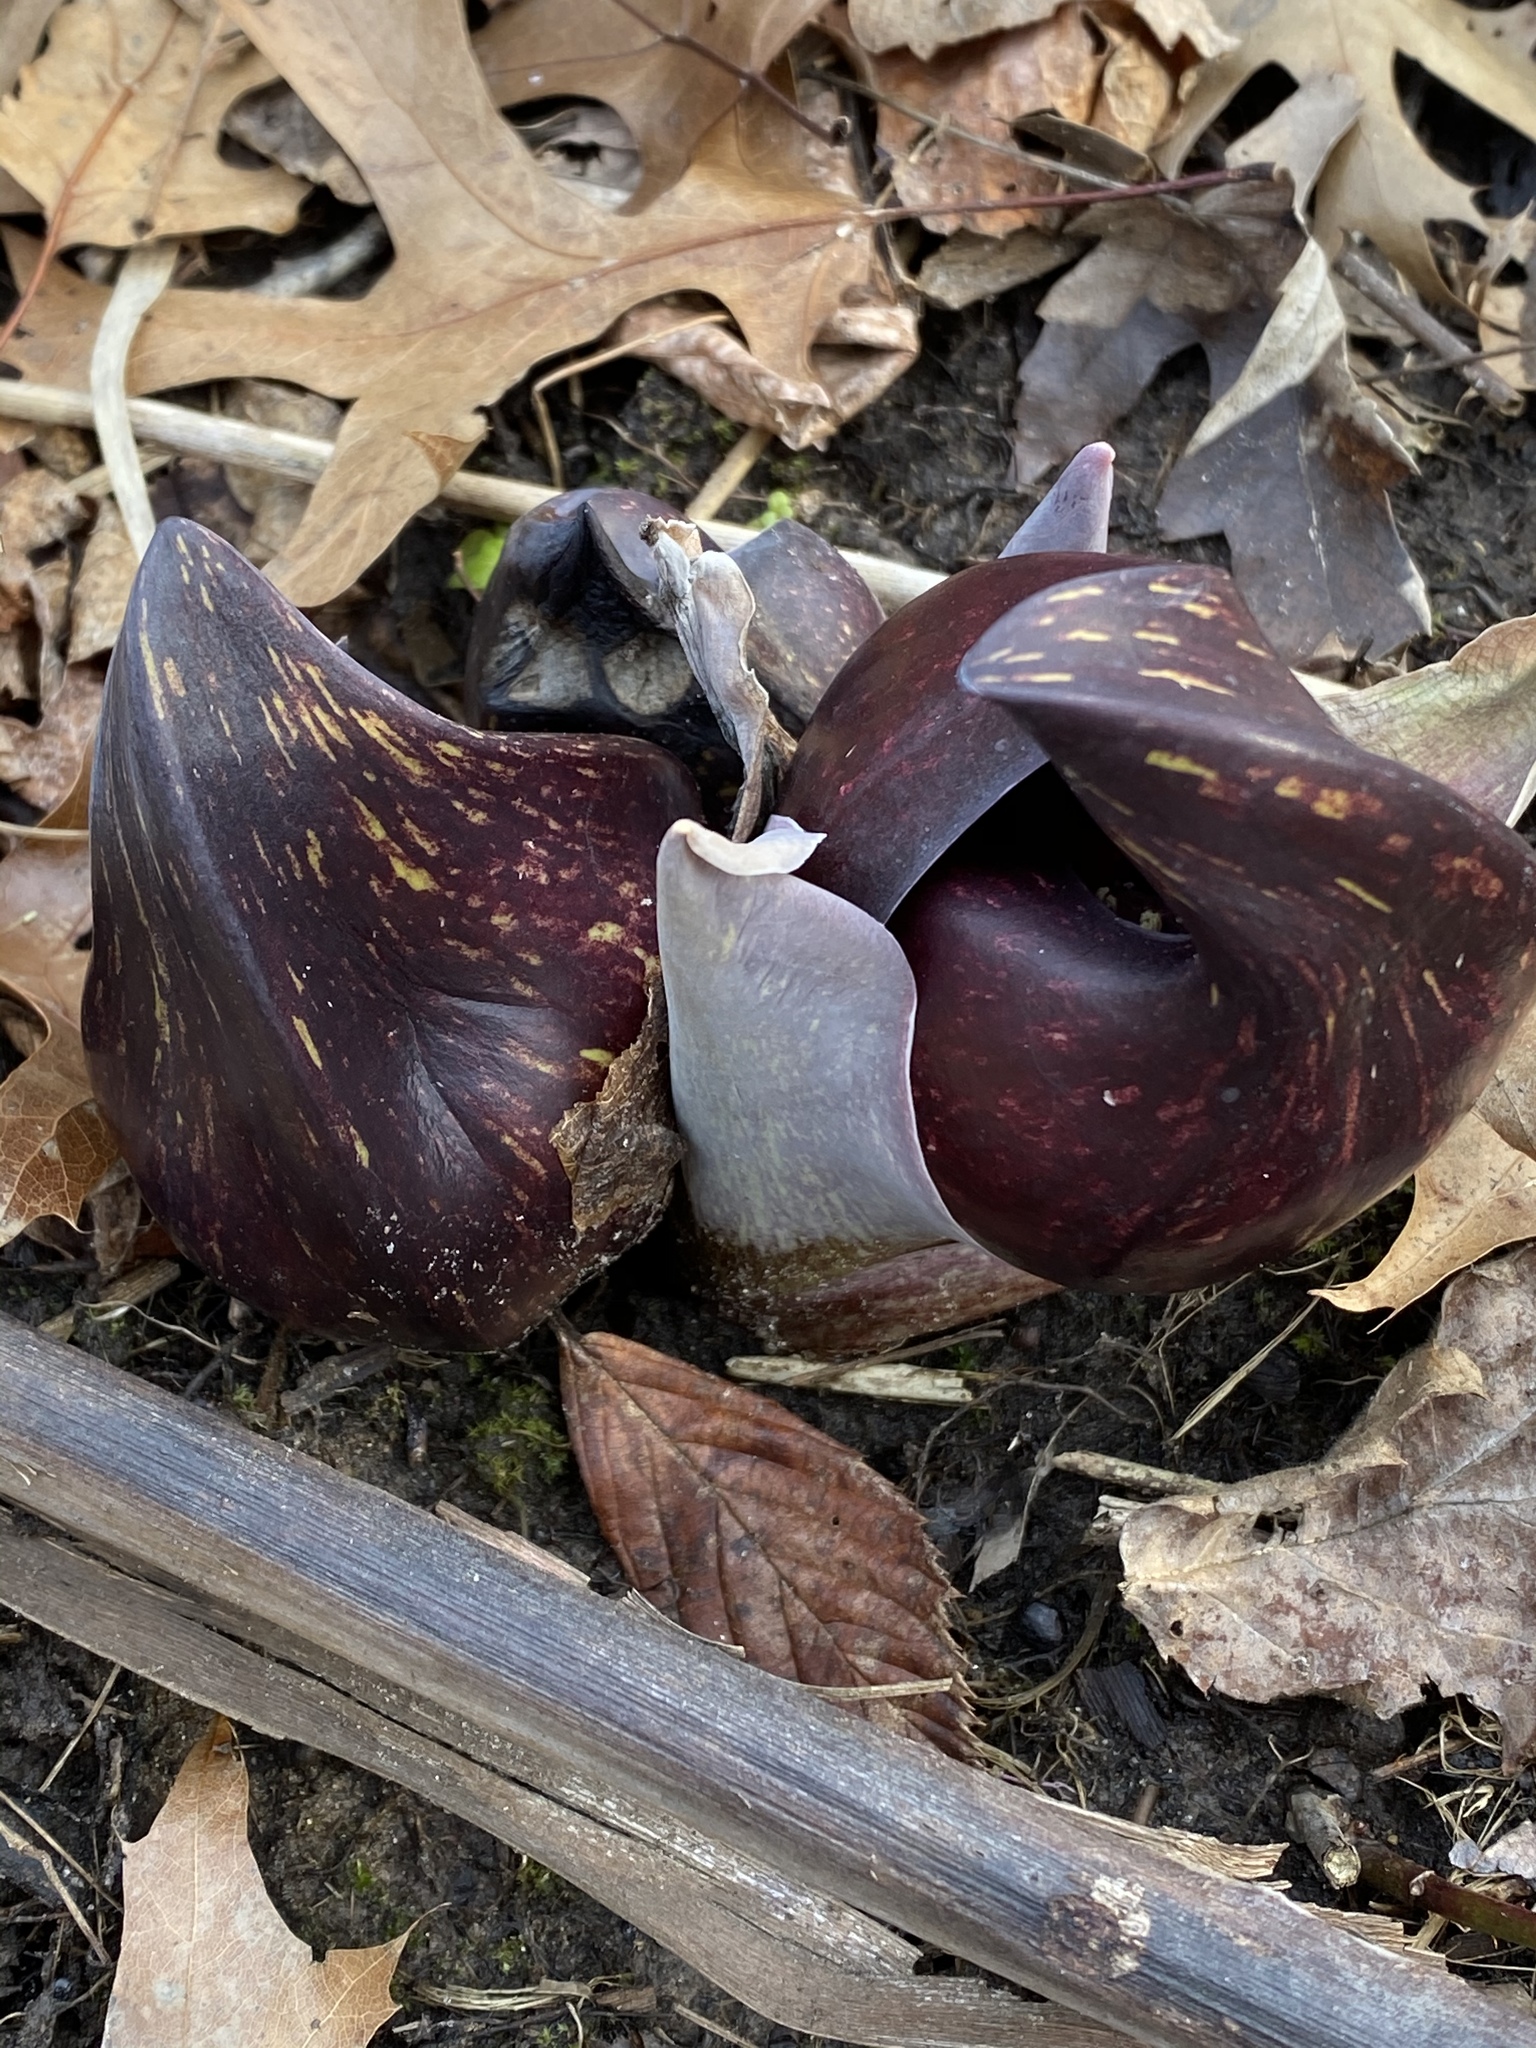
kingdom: Plantae
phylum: Tracheophyta
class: Liliopsida
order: Alismatales
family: Araceae
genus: Symplocarpus
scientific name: Symplocarpus foetidus
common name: Eastern skunk cabbage
